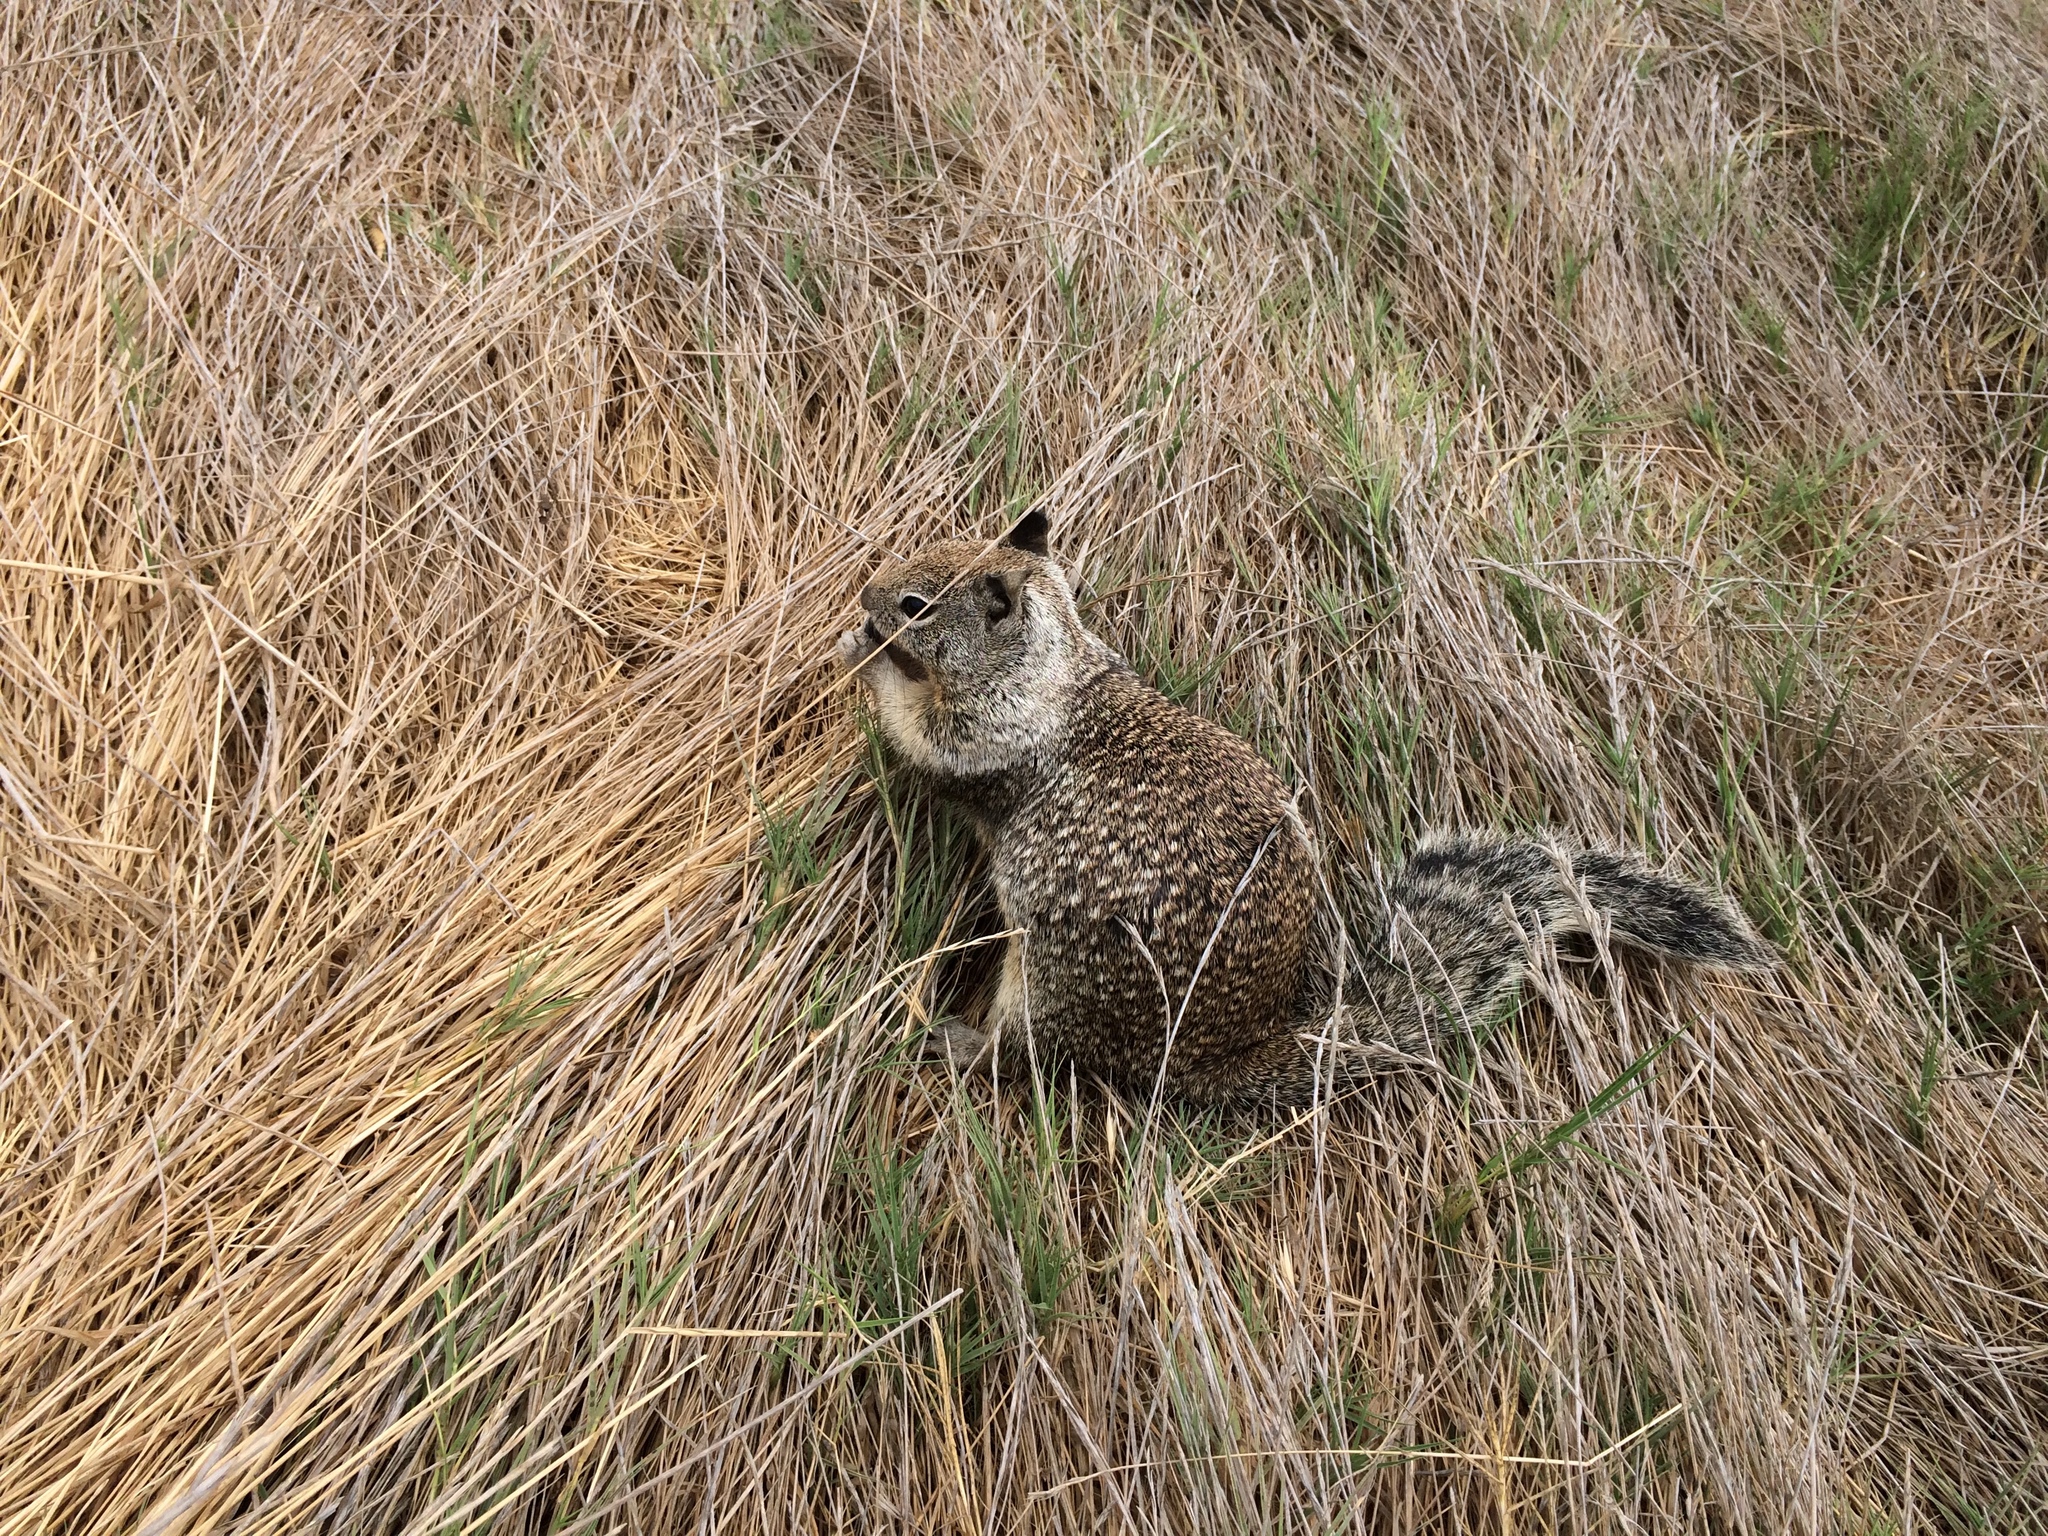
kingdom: Animalia
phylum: Chordata
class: Mammalia
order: Rodentia
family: Sciuridae
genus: Otospermophilus
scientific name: Otospermophilus beecheyi
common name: California ground squirrel
